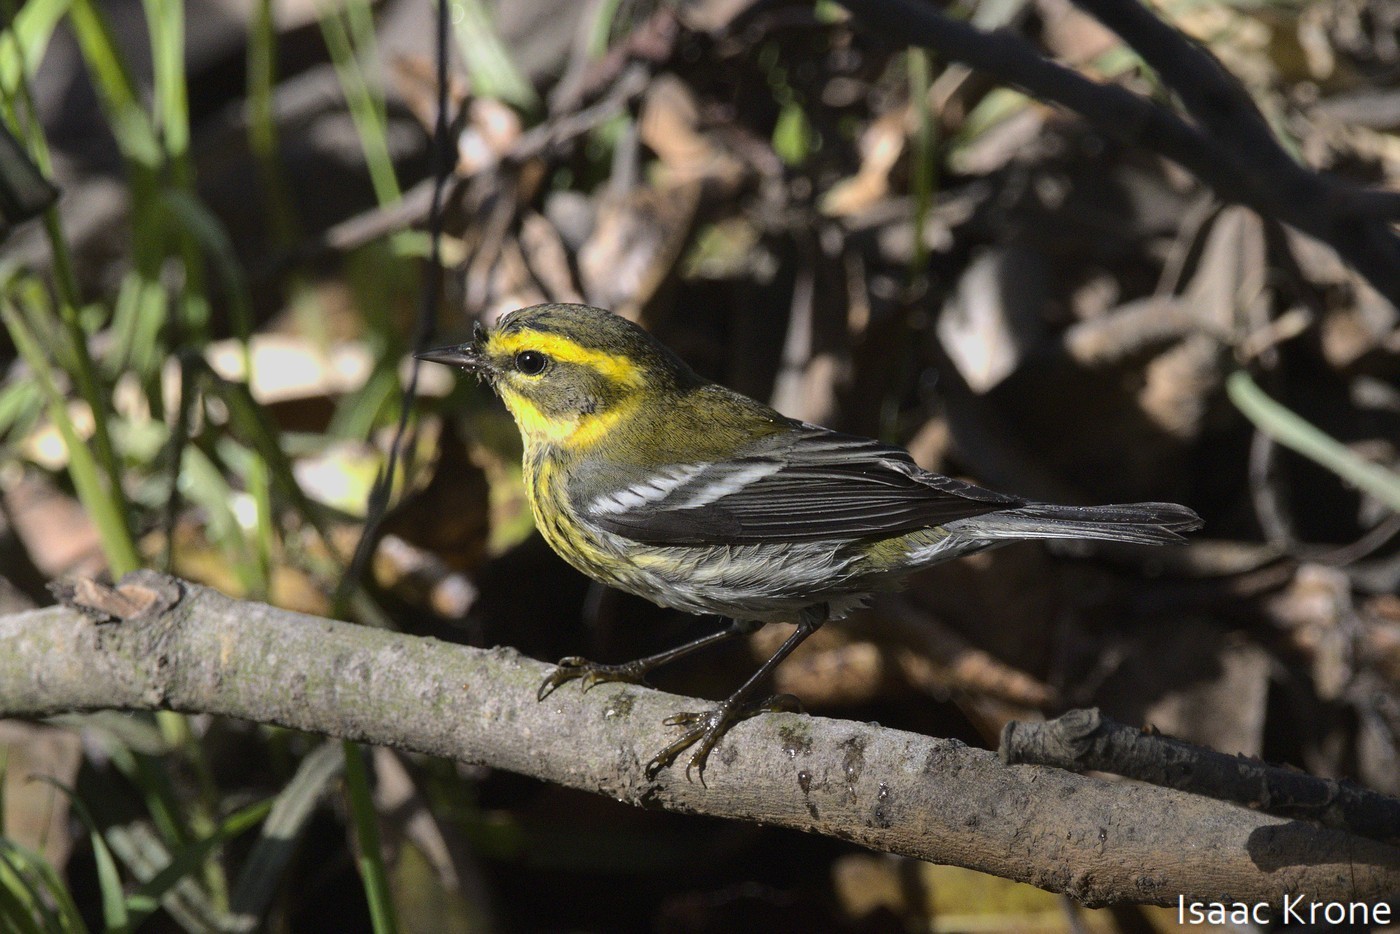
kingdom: Animalia
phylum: Chordata
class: Aves
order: Passeriformes
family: Parulidae
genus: Setophaga
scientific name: Setophaga townsendi
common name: Townsend's warbler
